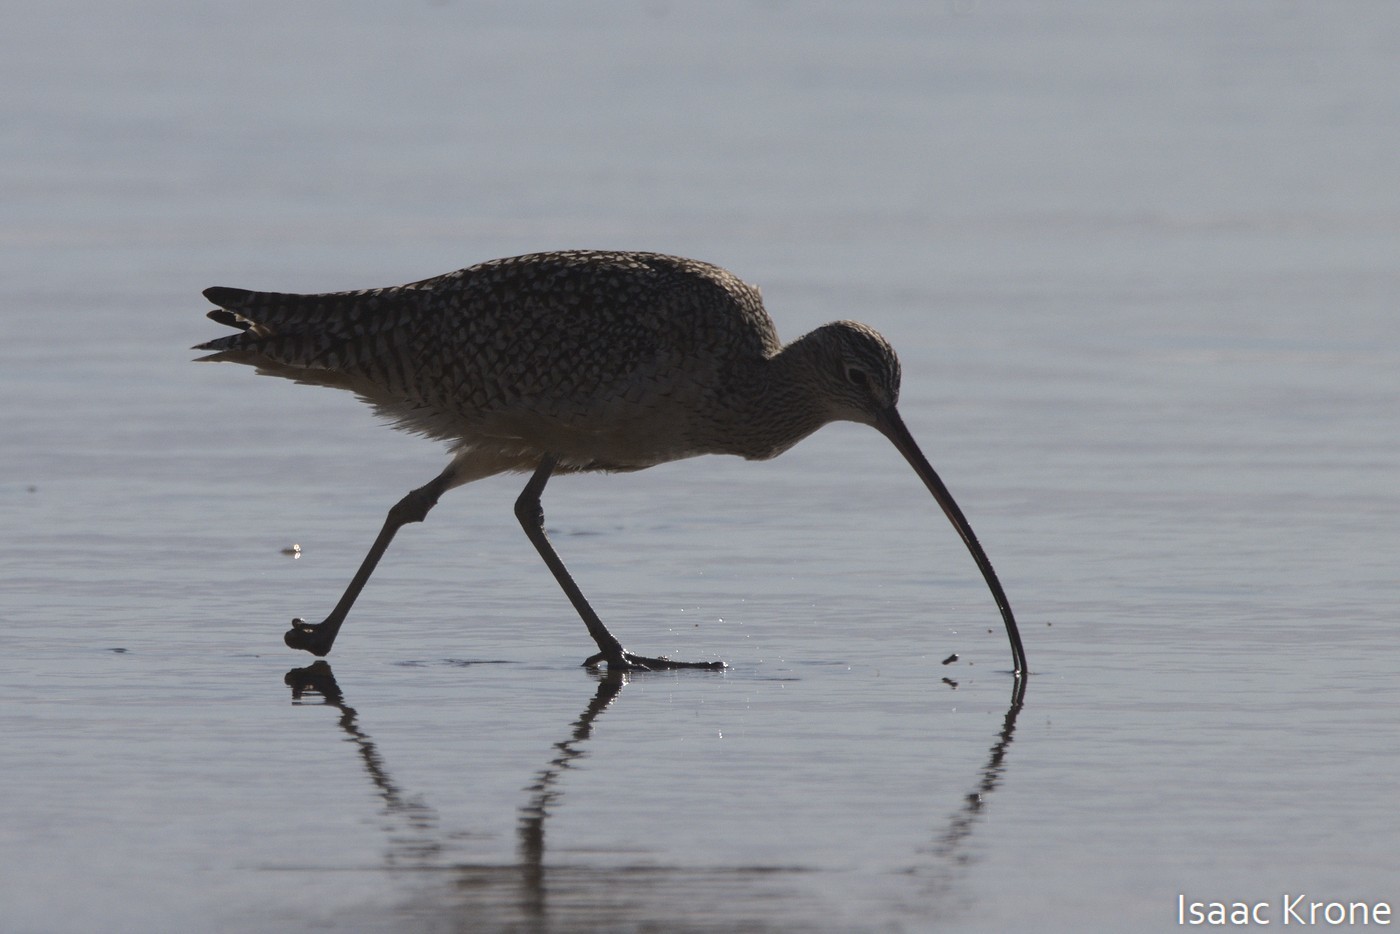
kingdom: Animalia
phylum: Chordata
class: Aves
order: Charadriiformes
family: Scolopacidae
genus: Numenius
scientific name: Numenius americanus
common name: Long-billed curlew
